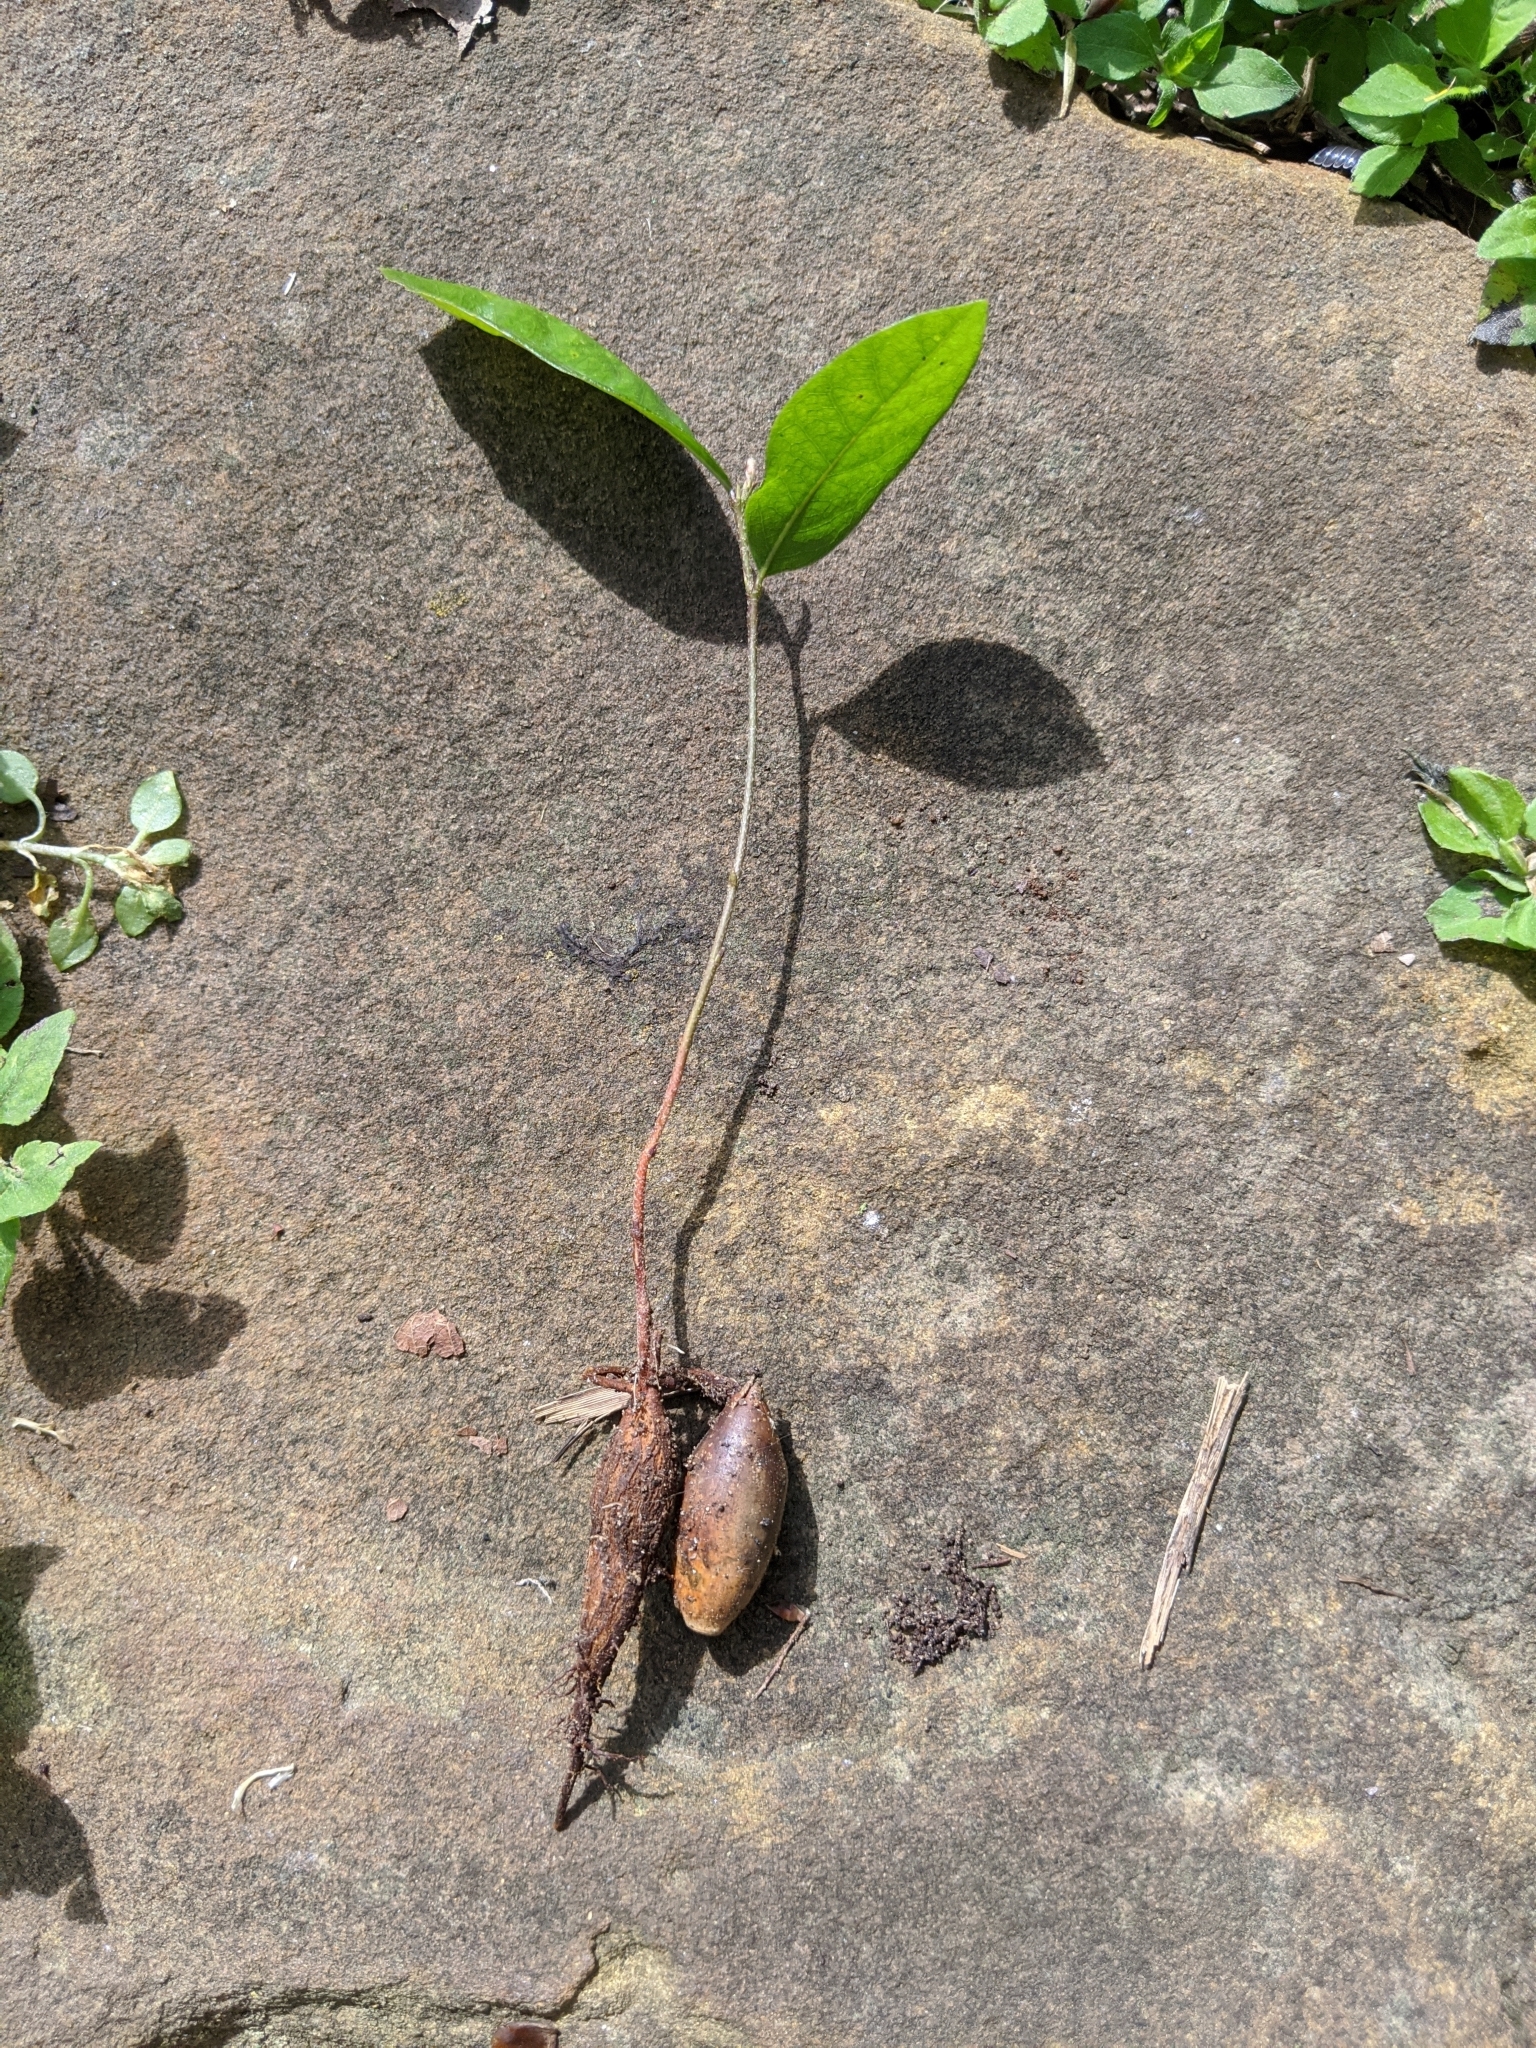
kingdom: Plantae
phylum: Tracheophyta
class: Magnoliopsida
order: Fagales
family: Fagaceae
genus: Quercus
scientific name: Quercus fusiformis
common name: Texas live oak
